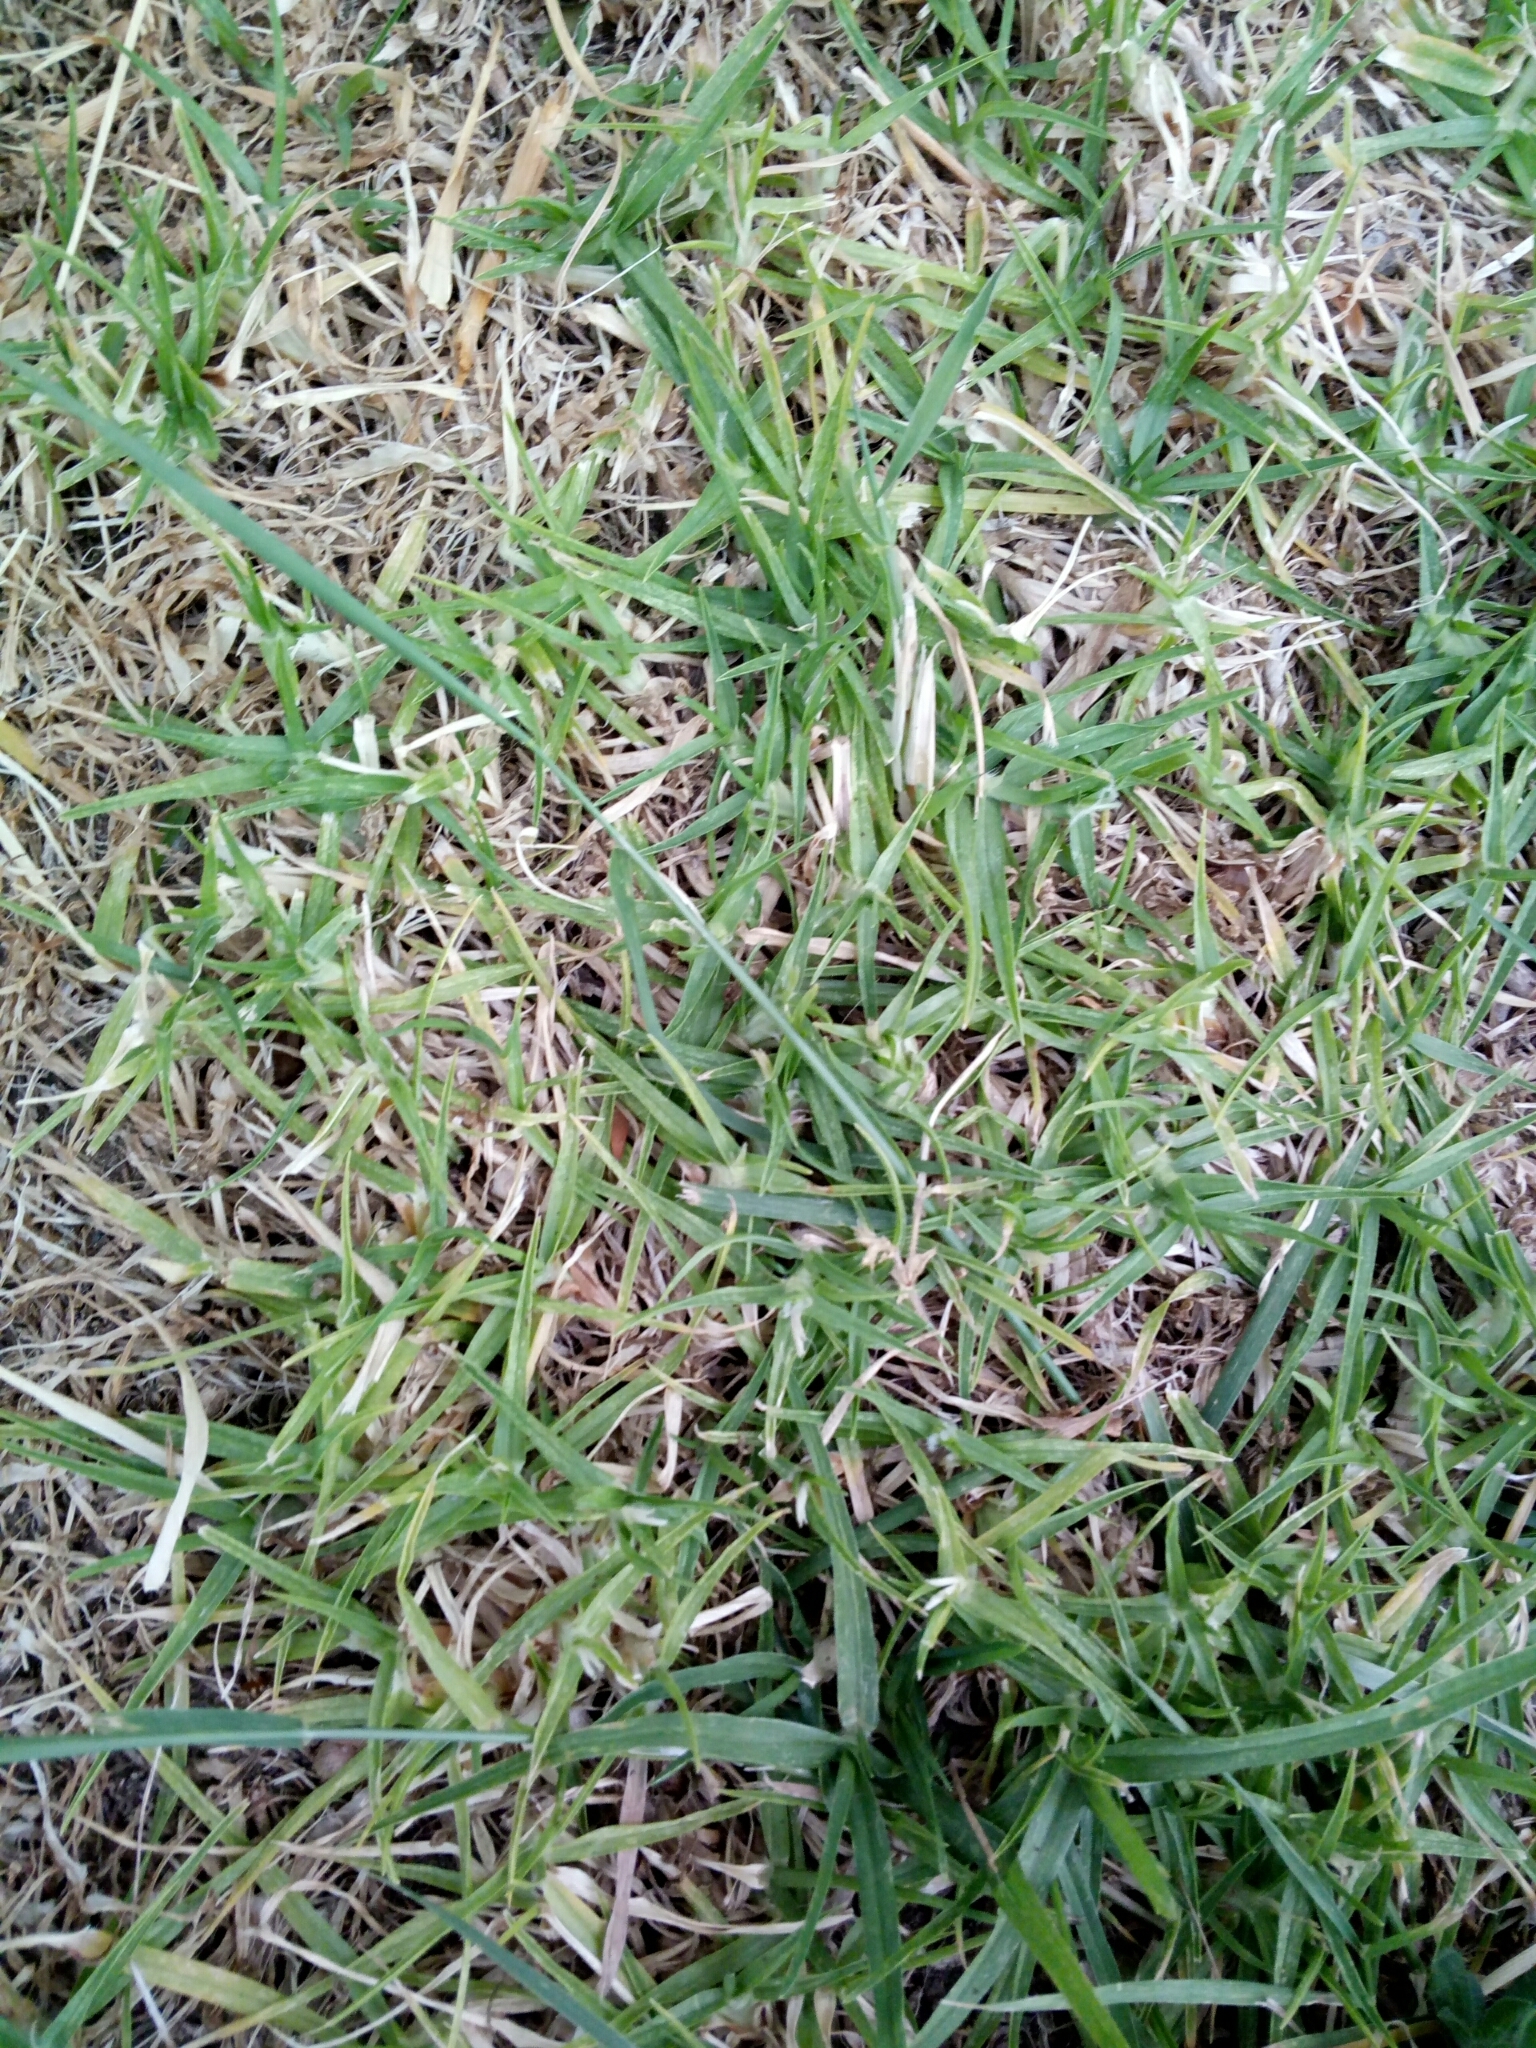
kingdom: Plantae
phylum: Tracheophyta
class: Liliopsida
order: Poales
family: Poaceae
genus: Cenchrus
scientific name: Cenchrus clandestinus
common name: Kikuyugrass
